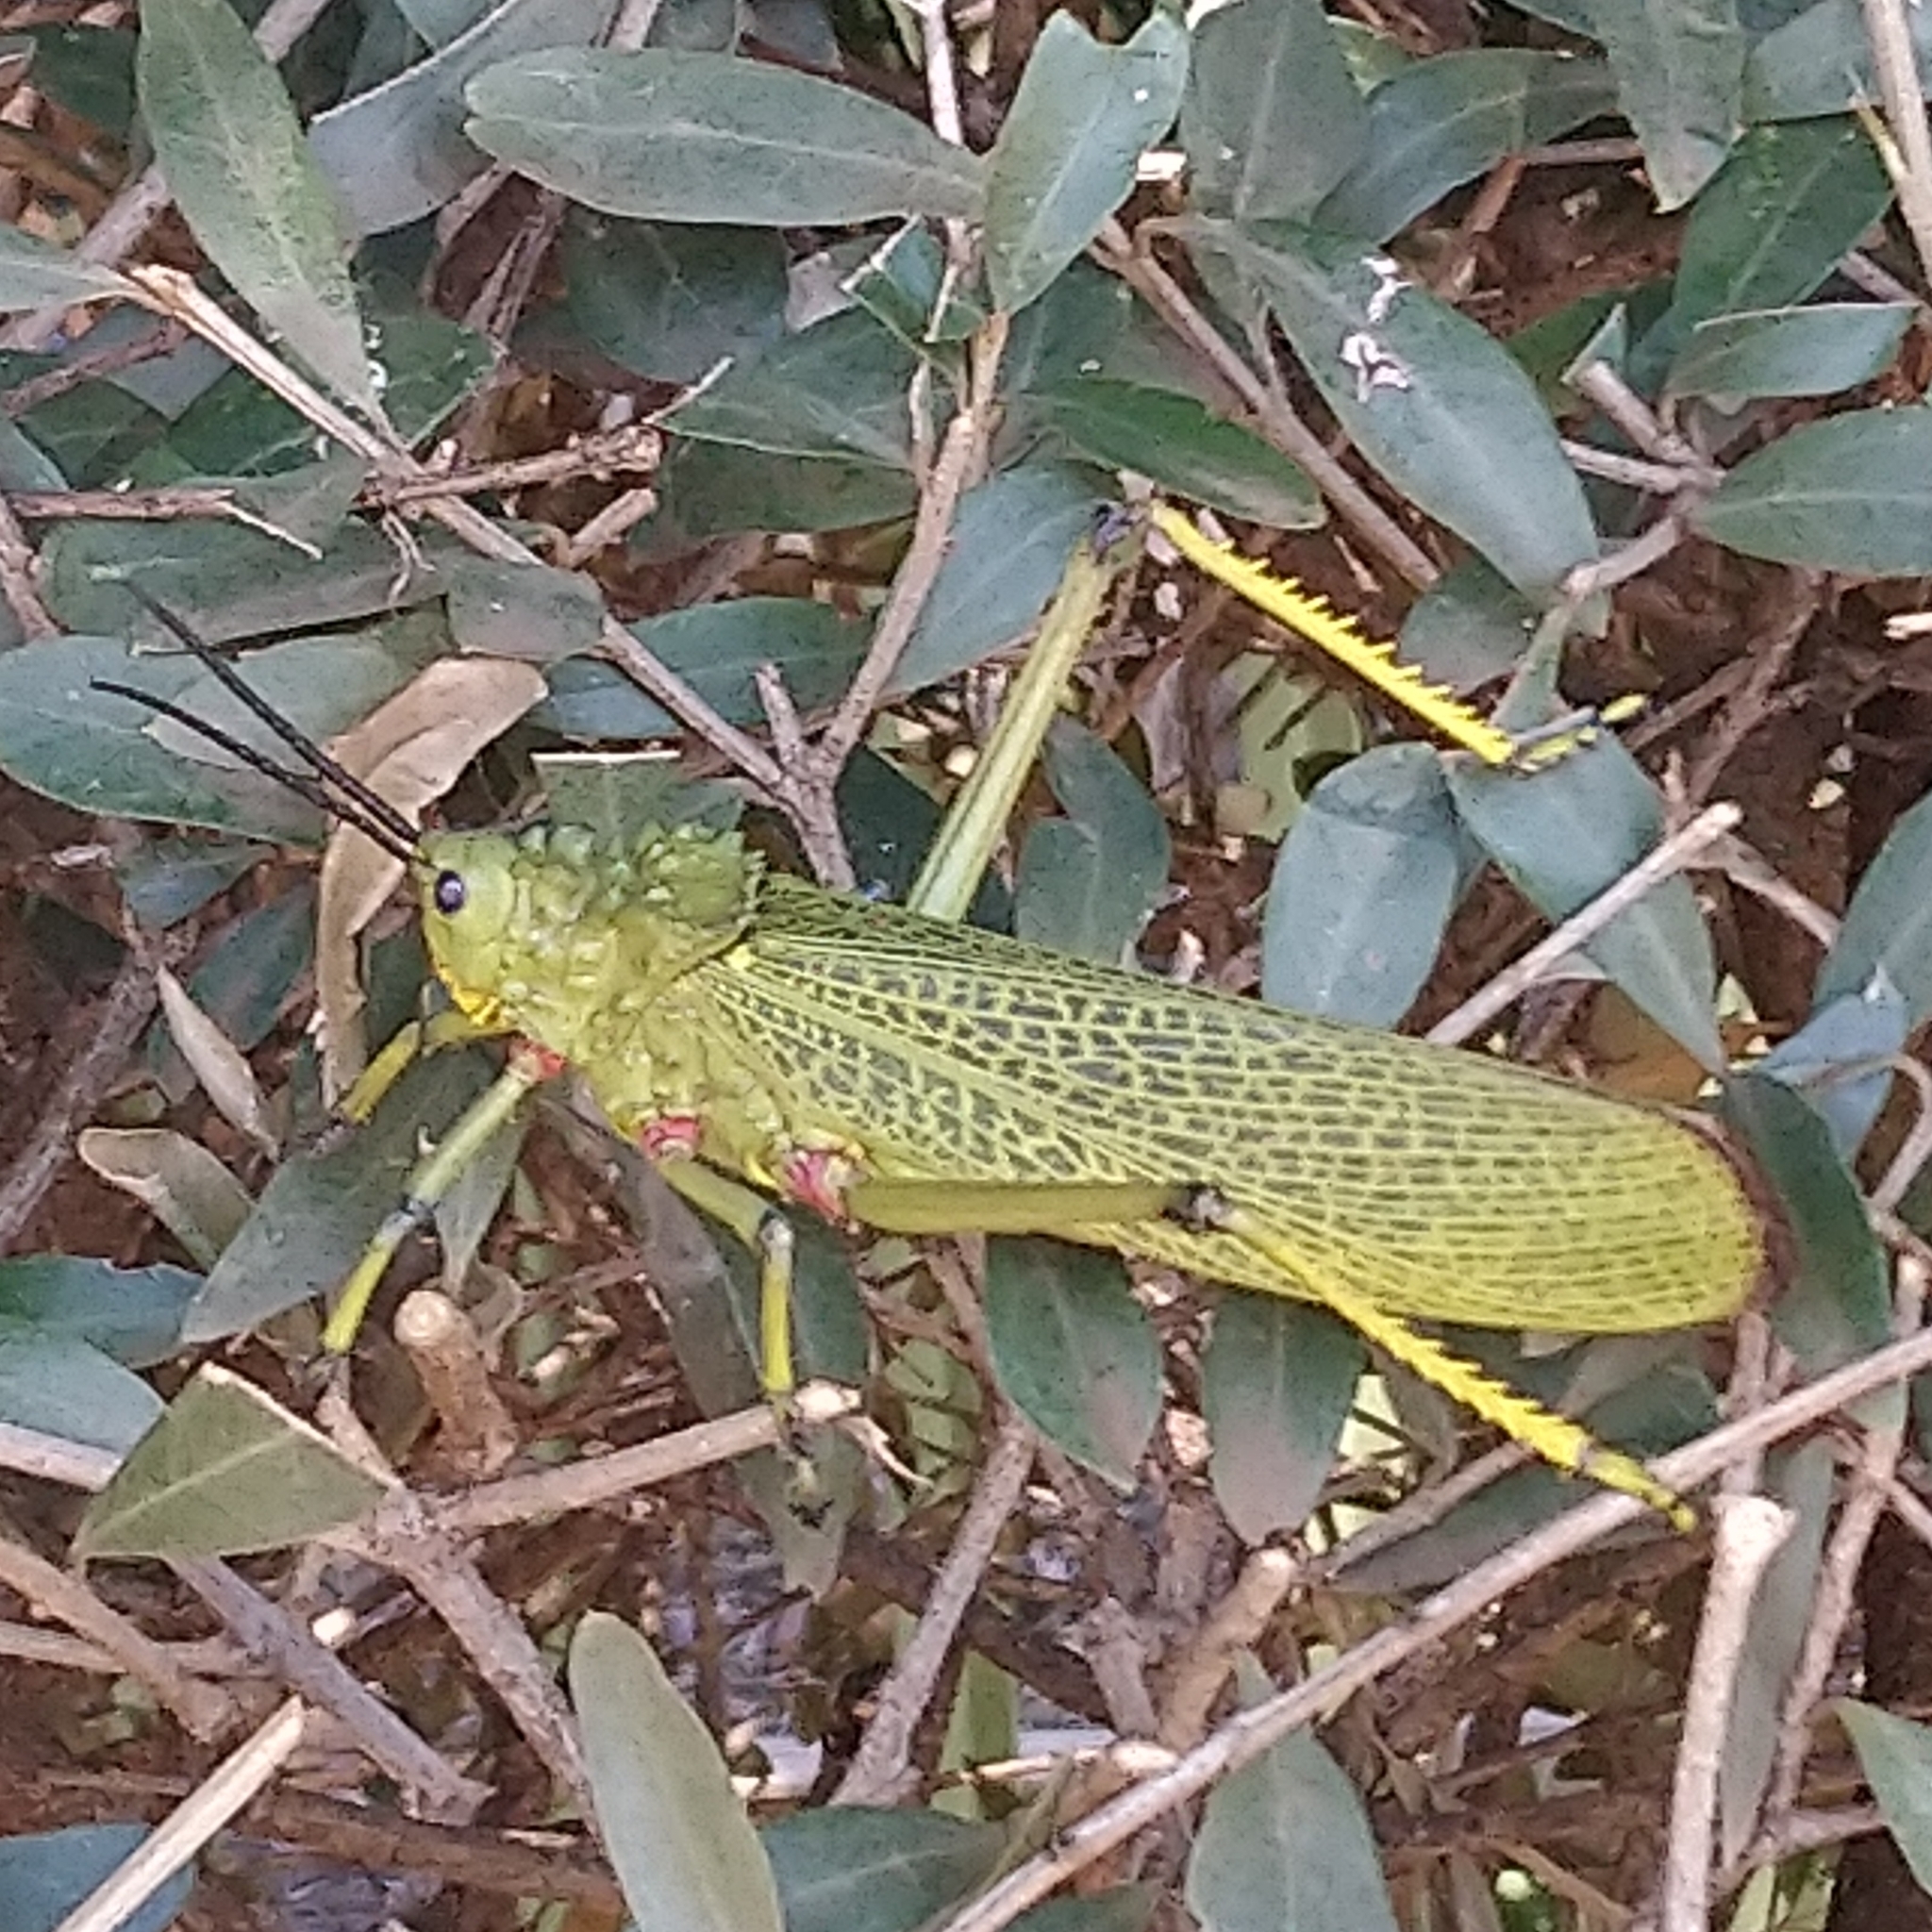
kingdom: Animalia
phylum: Arthropoda
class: Insecta
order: Orthoptera
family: Pyrgomorphidae
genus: Phymateus
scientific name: Phymateus viridipes
